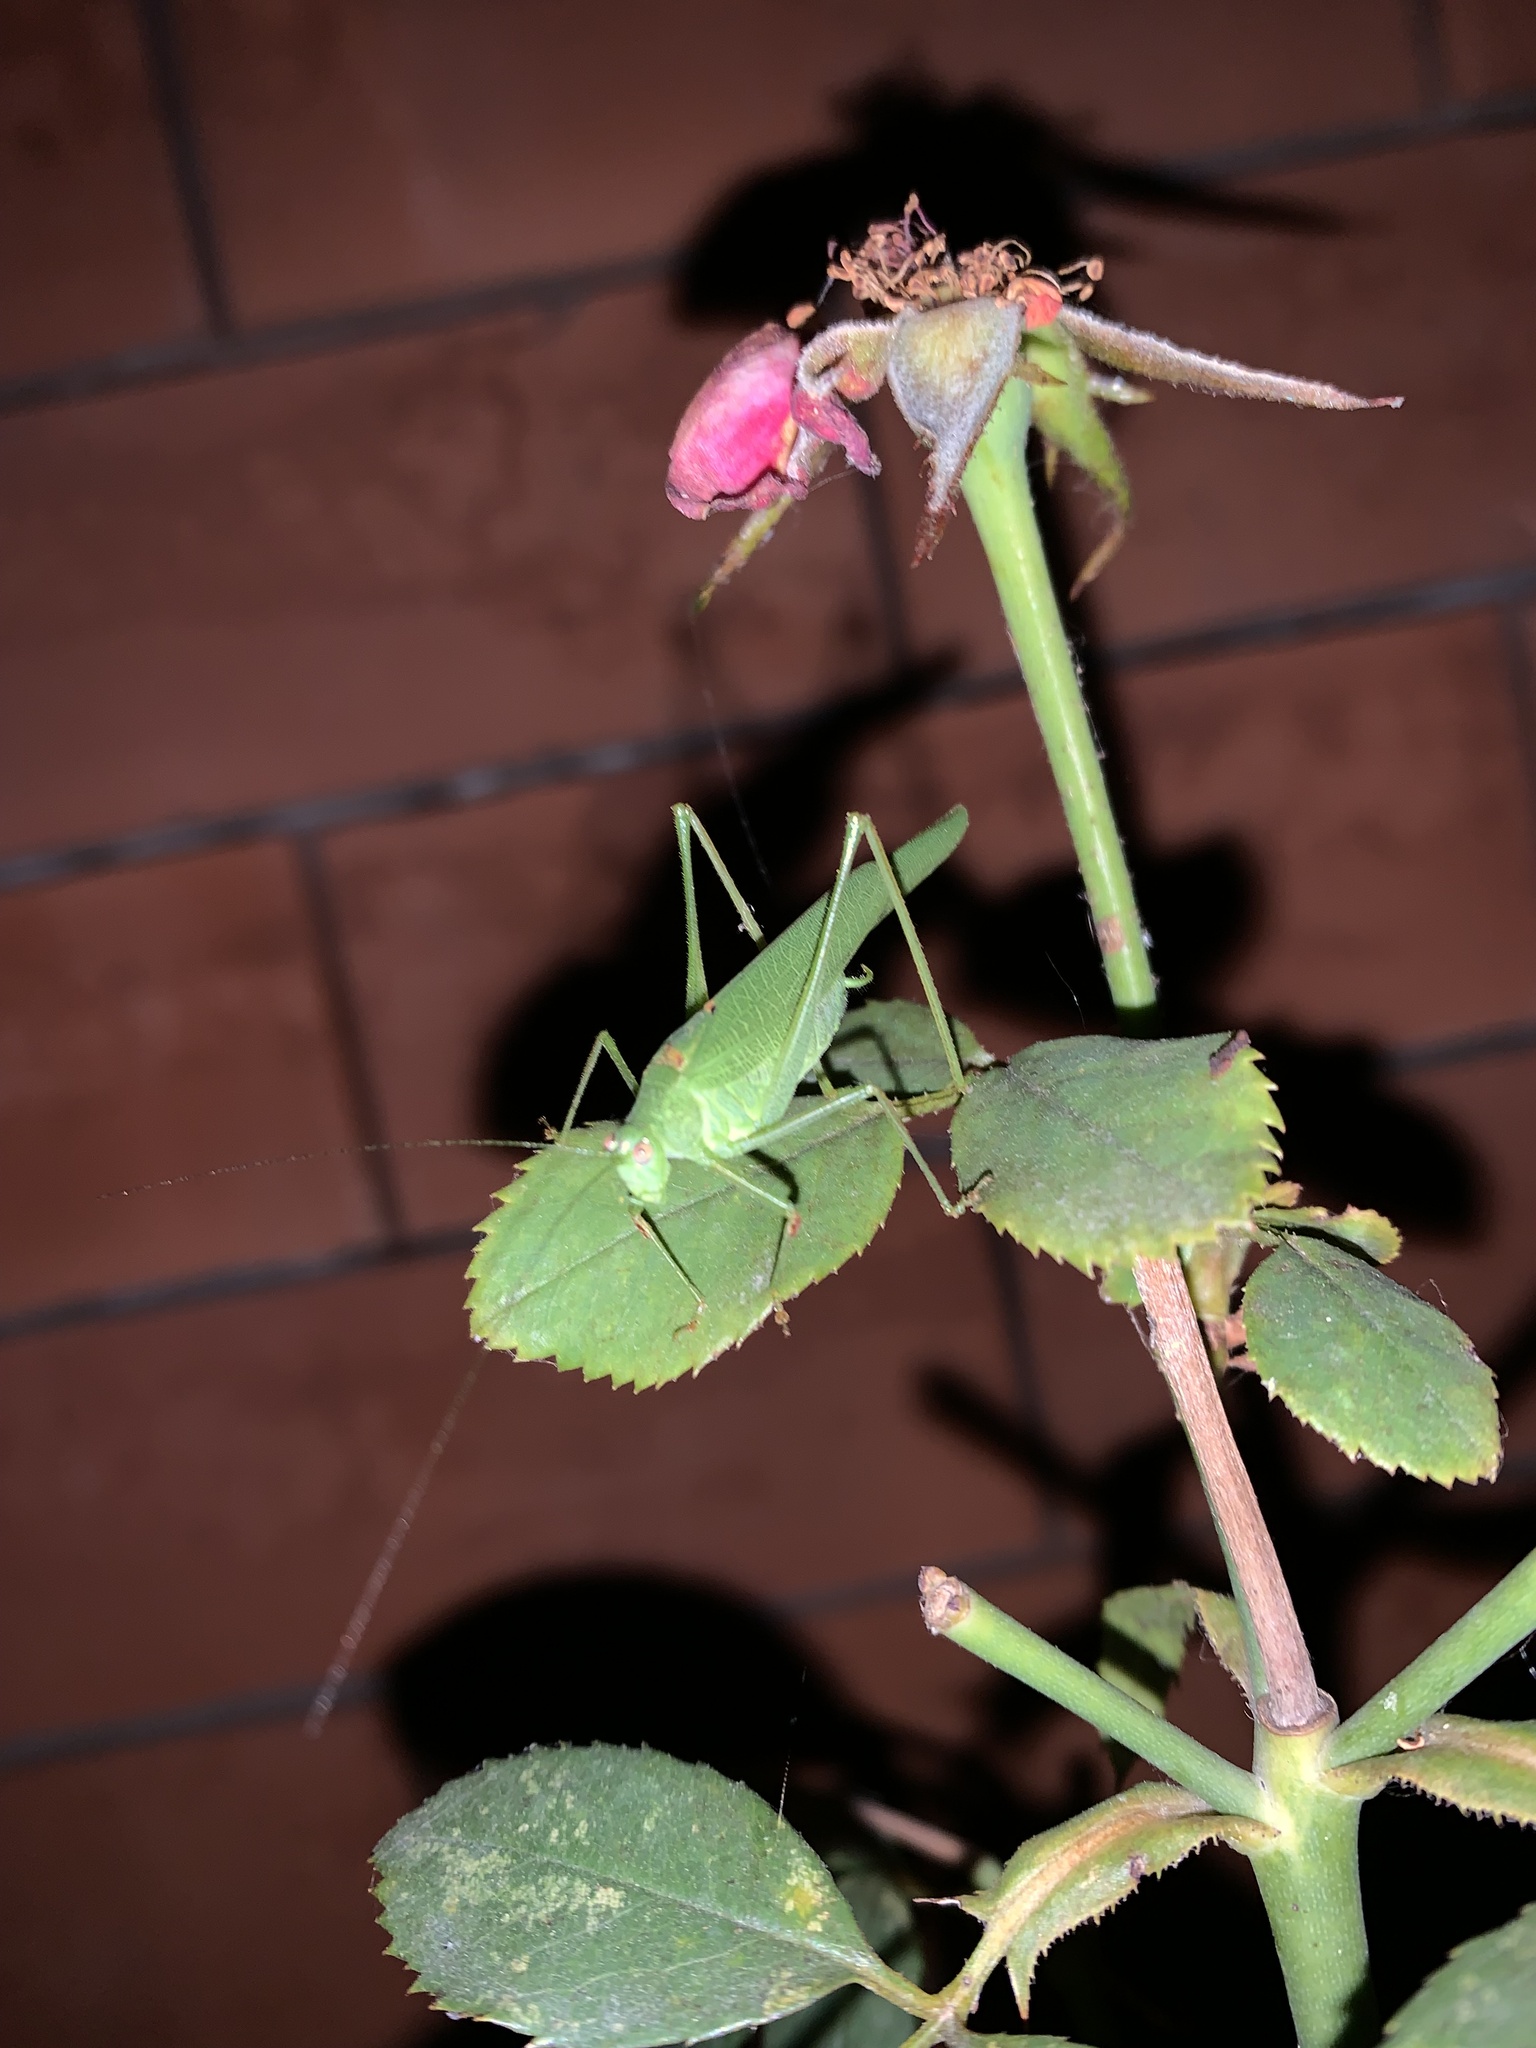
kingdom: Animalia
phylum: Arthropoda
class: Insecta
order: Orthoptera
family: Tettigoniidae
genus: Phaneroptera
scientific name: Phaneroptera nana
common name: Southern sickle bush-cricket
